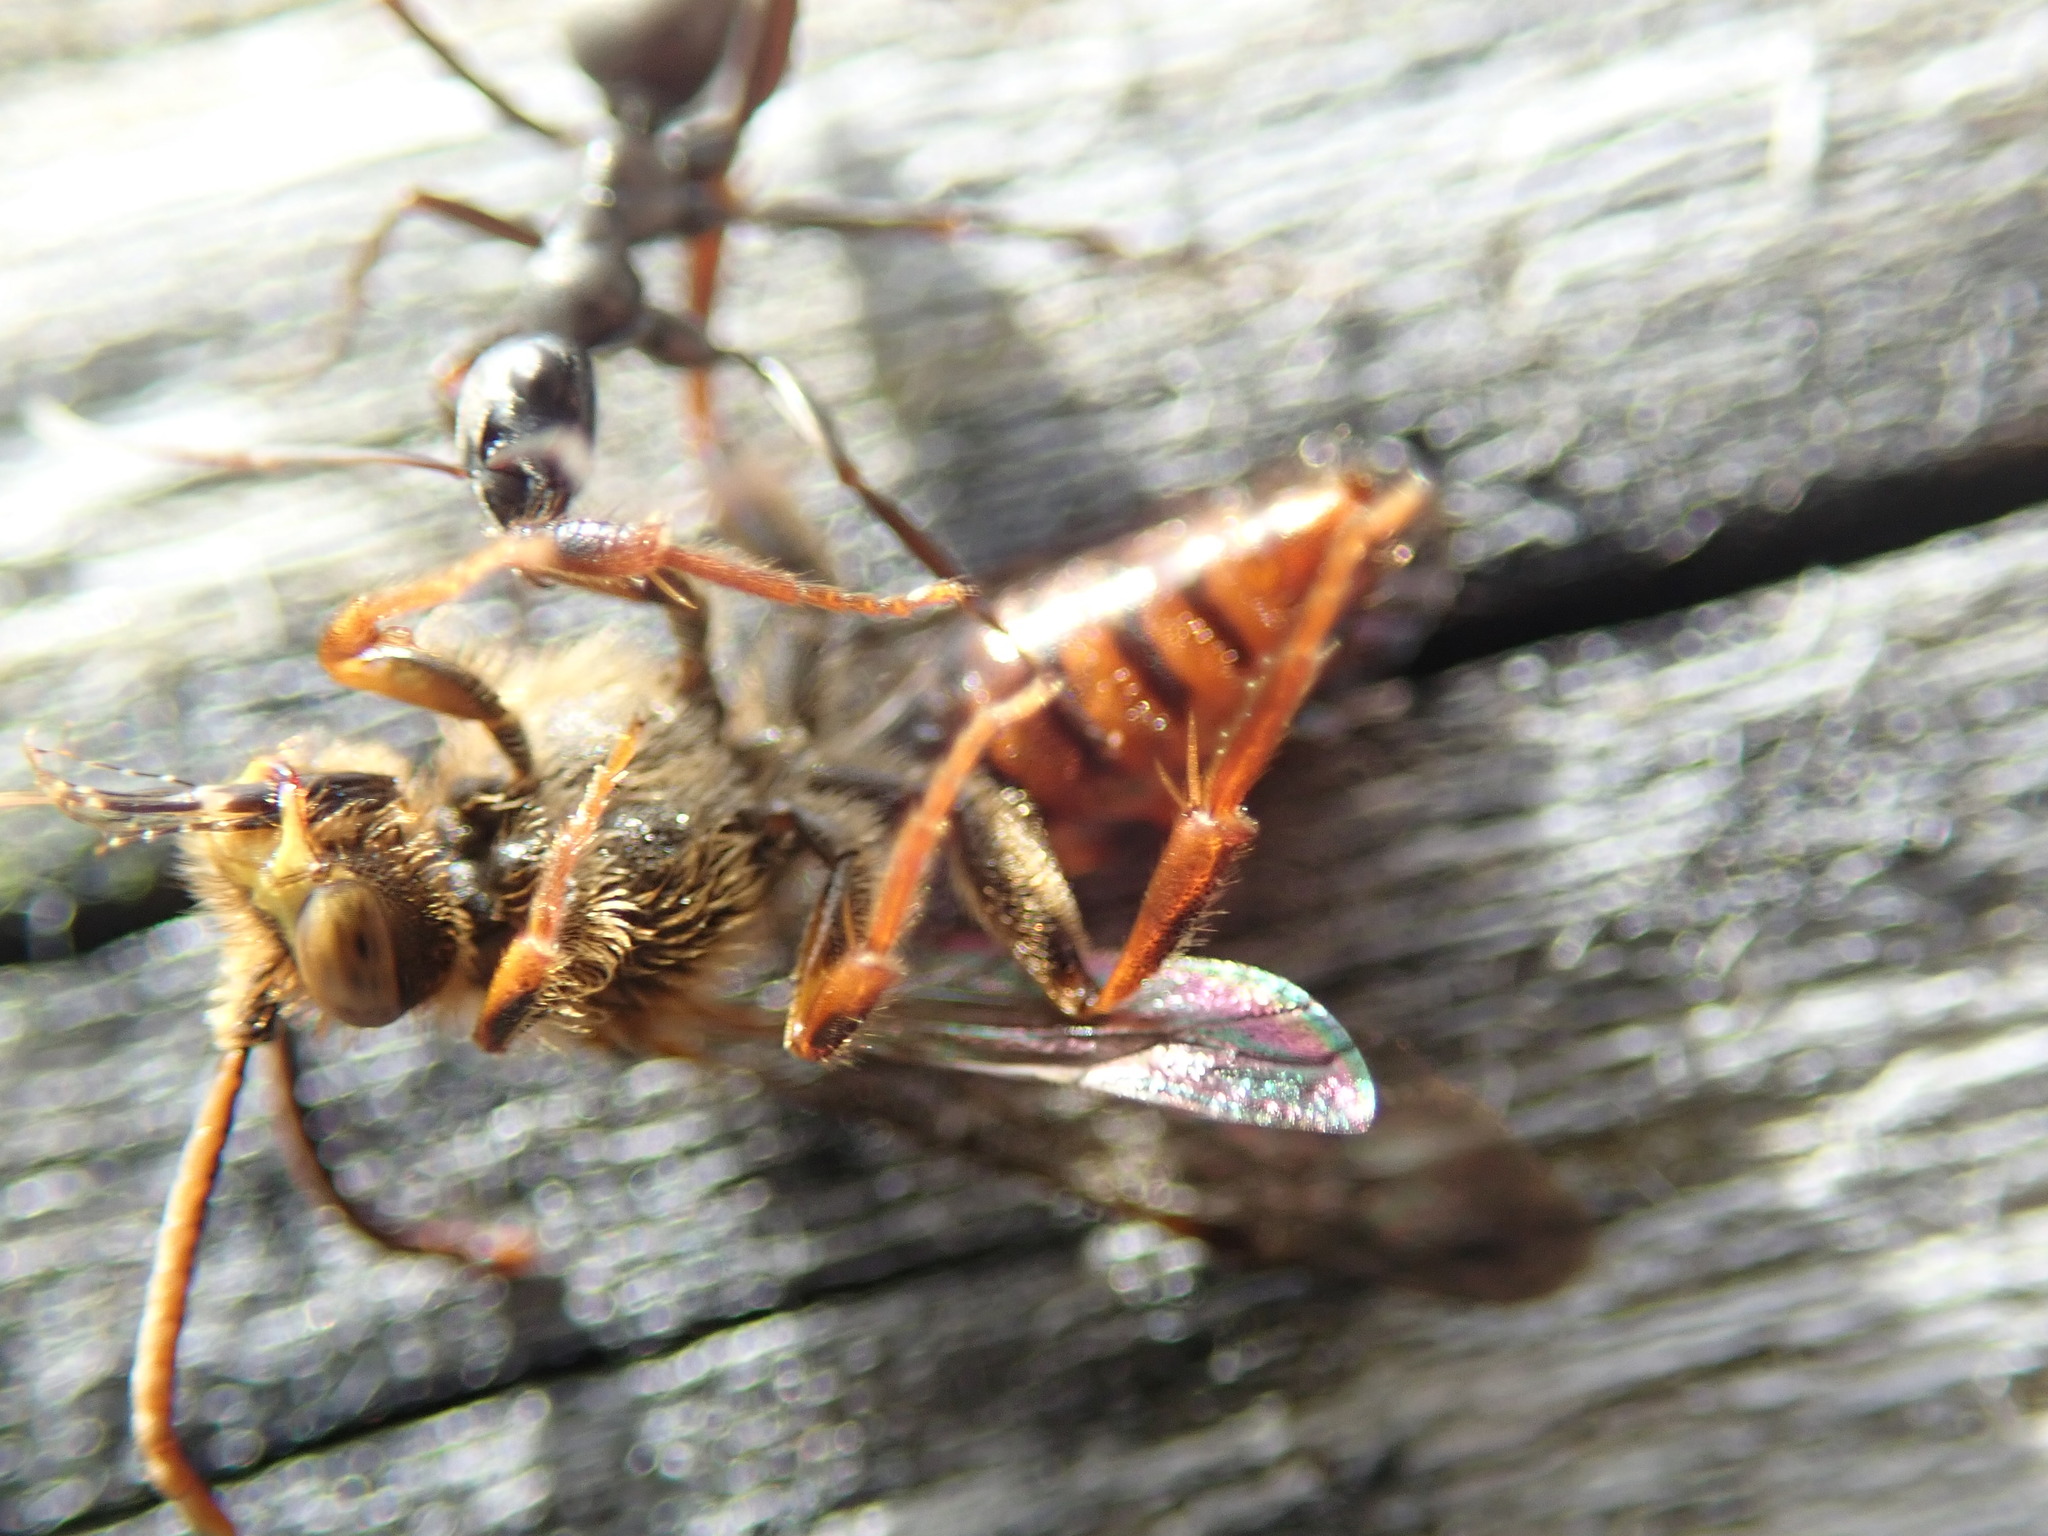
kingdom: Animalia
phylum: Arthropoda
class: Insecta
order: Hymenoptera
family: Apidae
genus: Nomada
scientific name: Nomada
